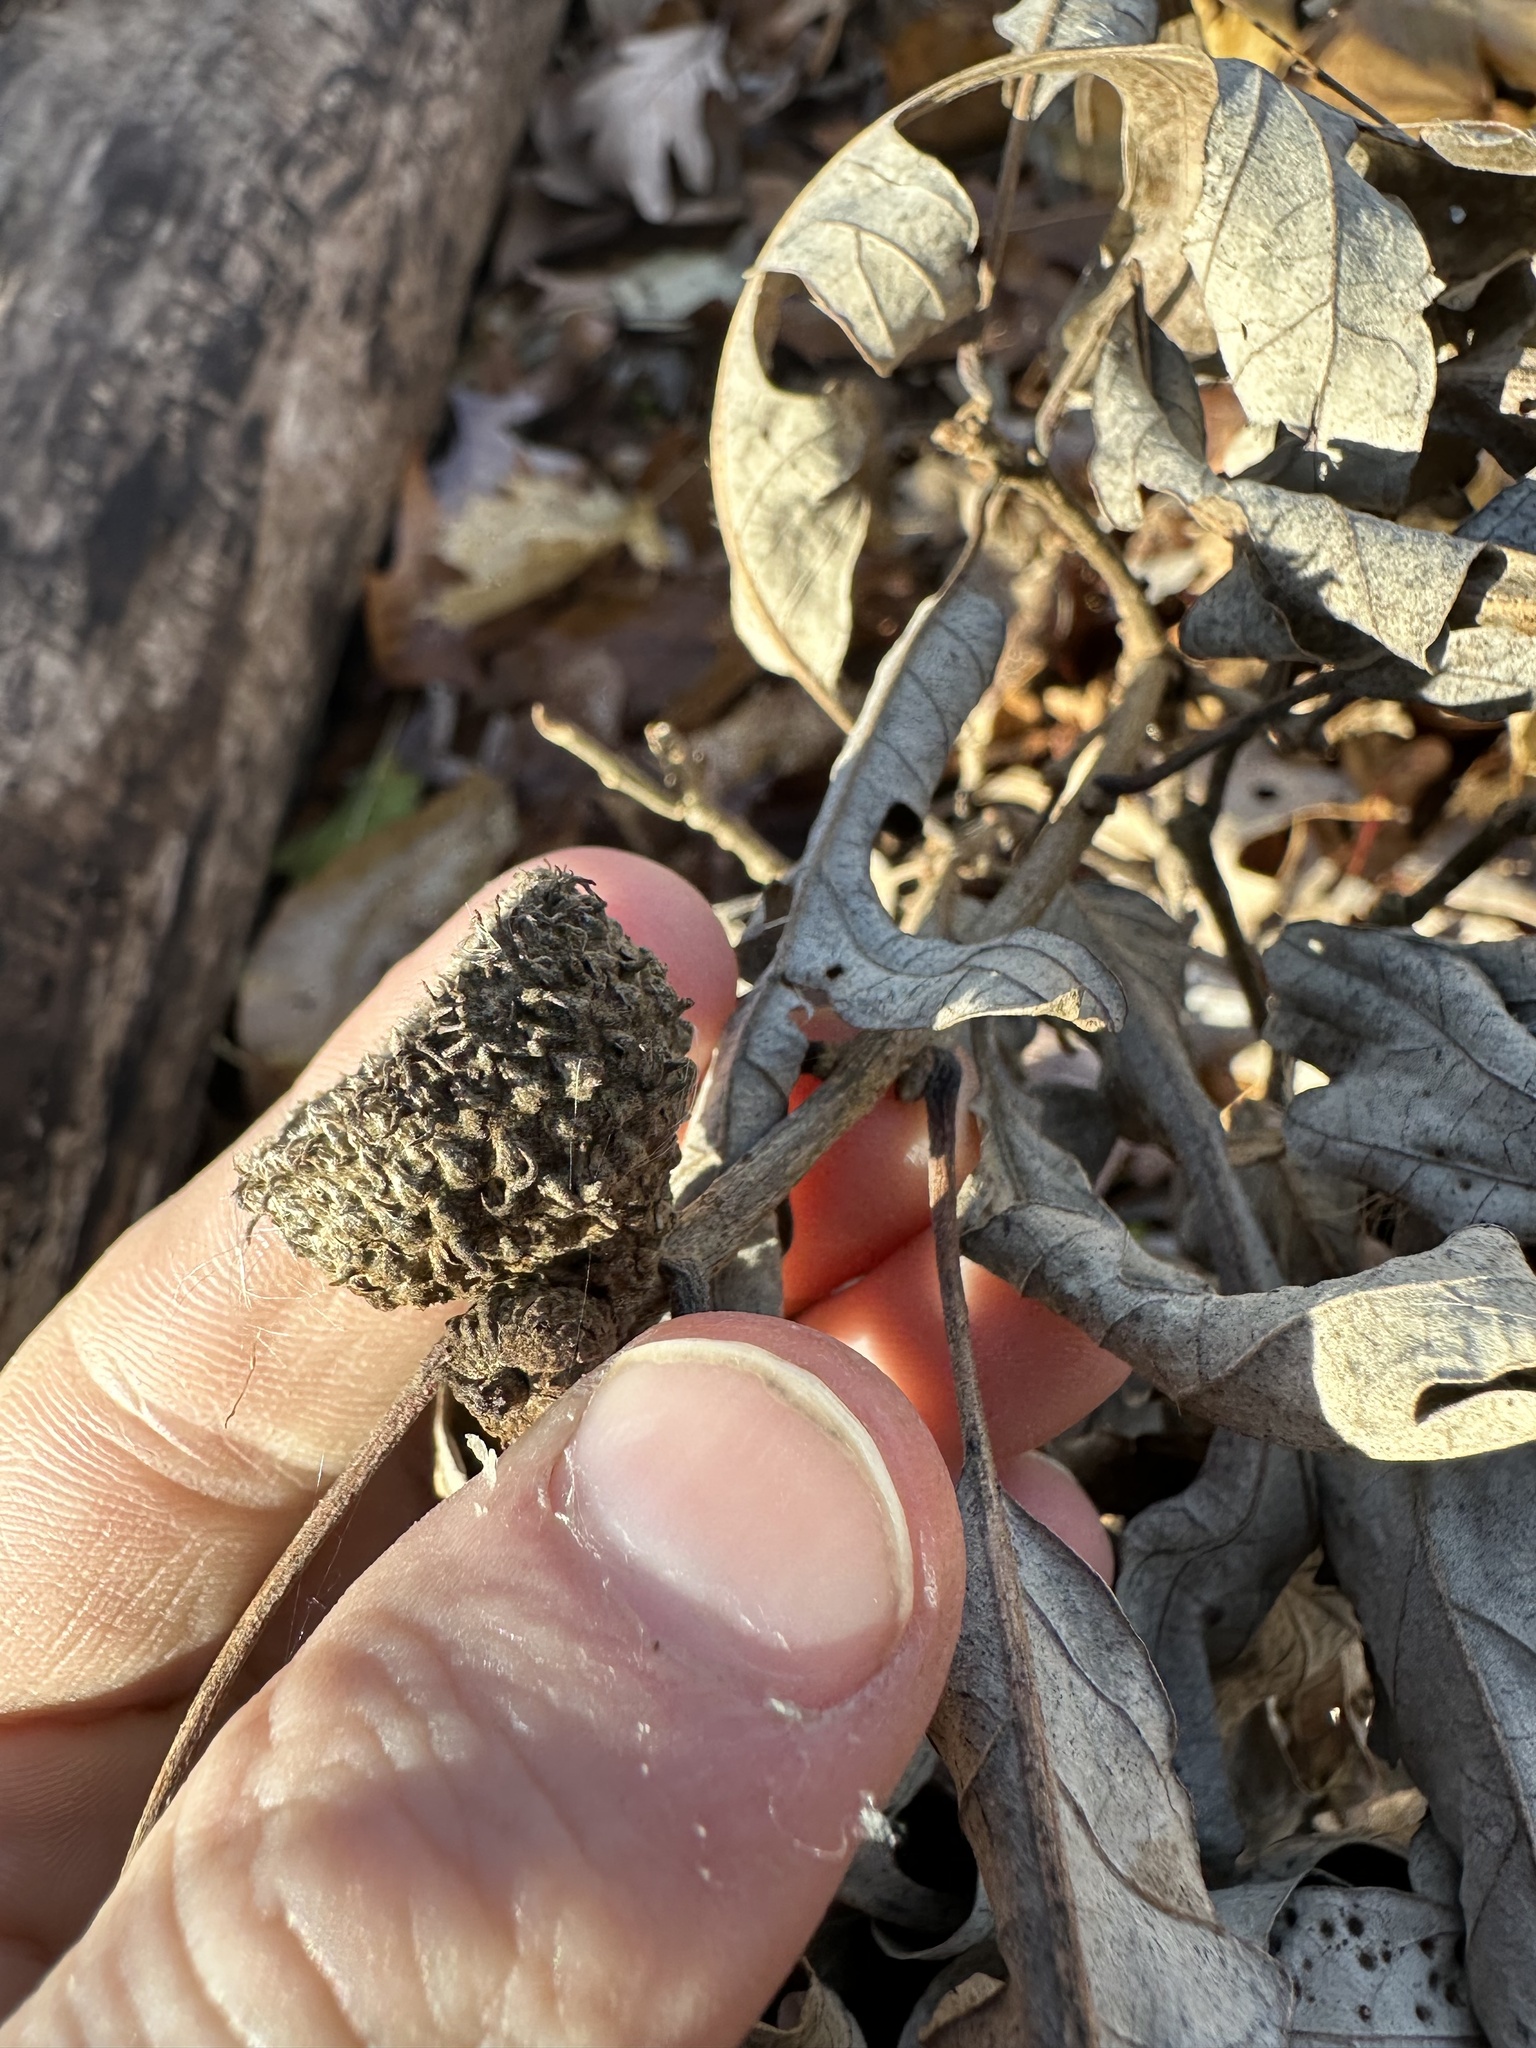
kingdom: Plantae
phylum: Tracheophyta
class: Magnoliopsida
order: Fagales
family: Fagaceae
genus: Quercus
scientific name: Quercus macrocarpa
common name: Bur oak
